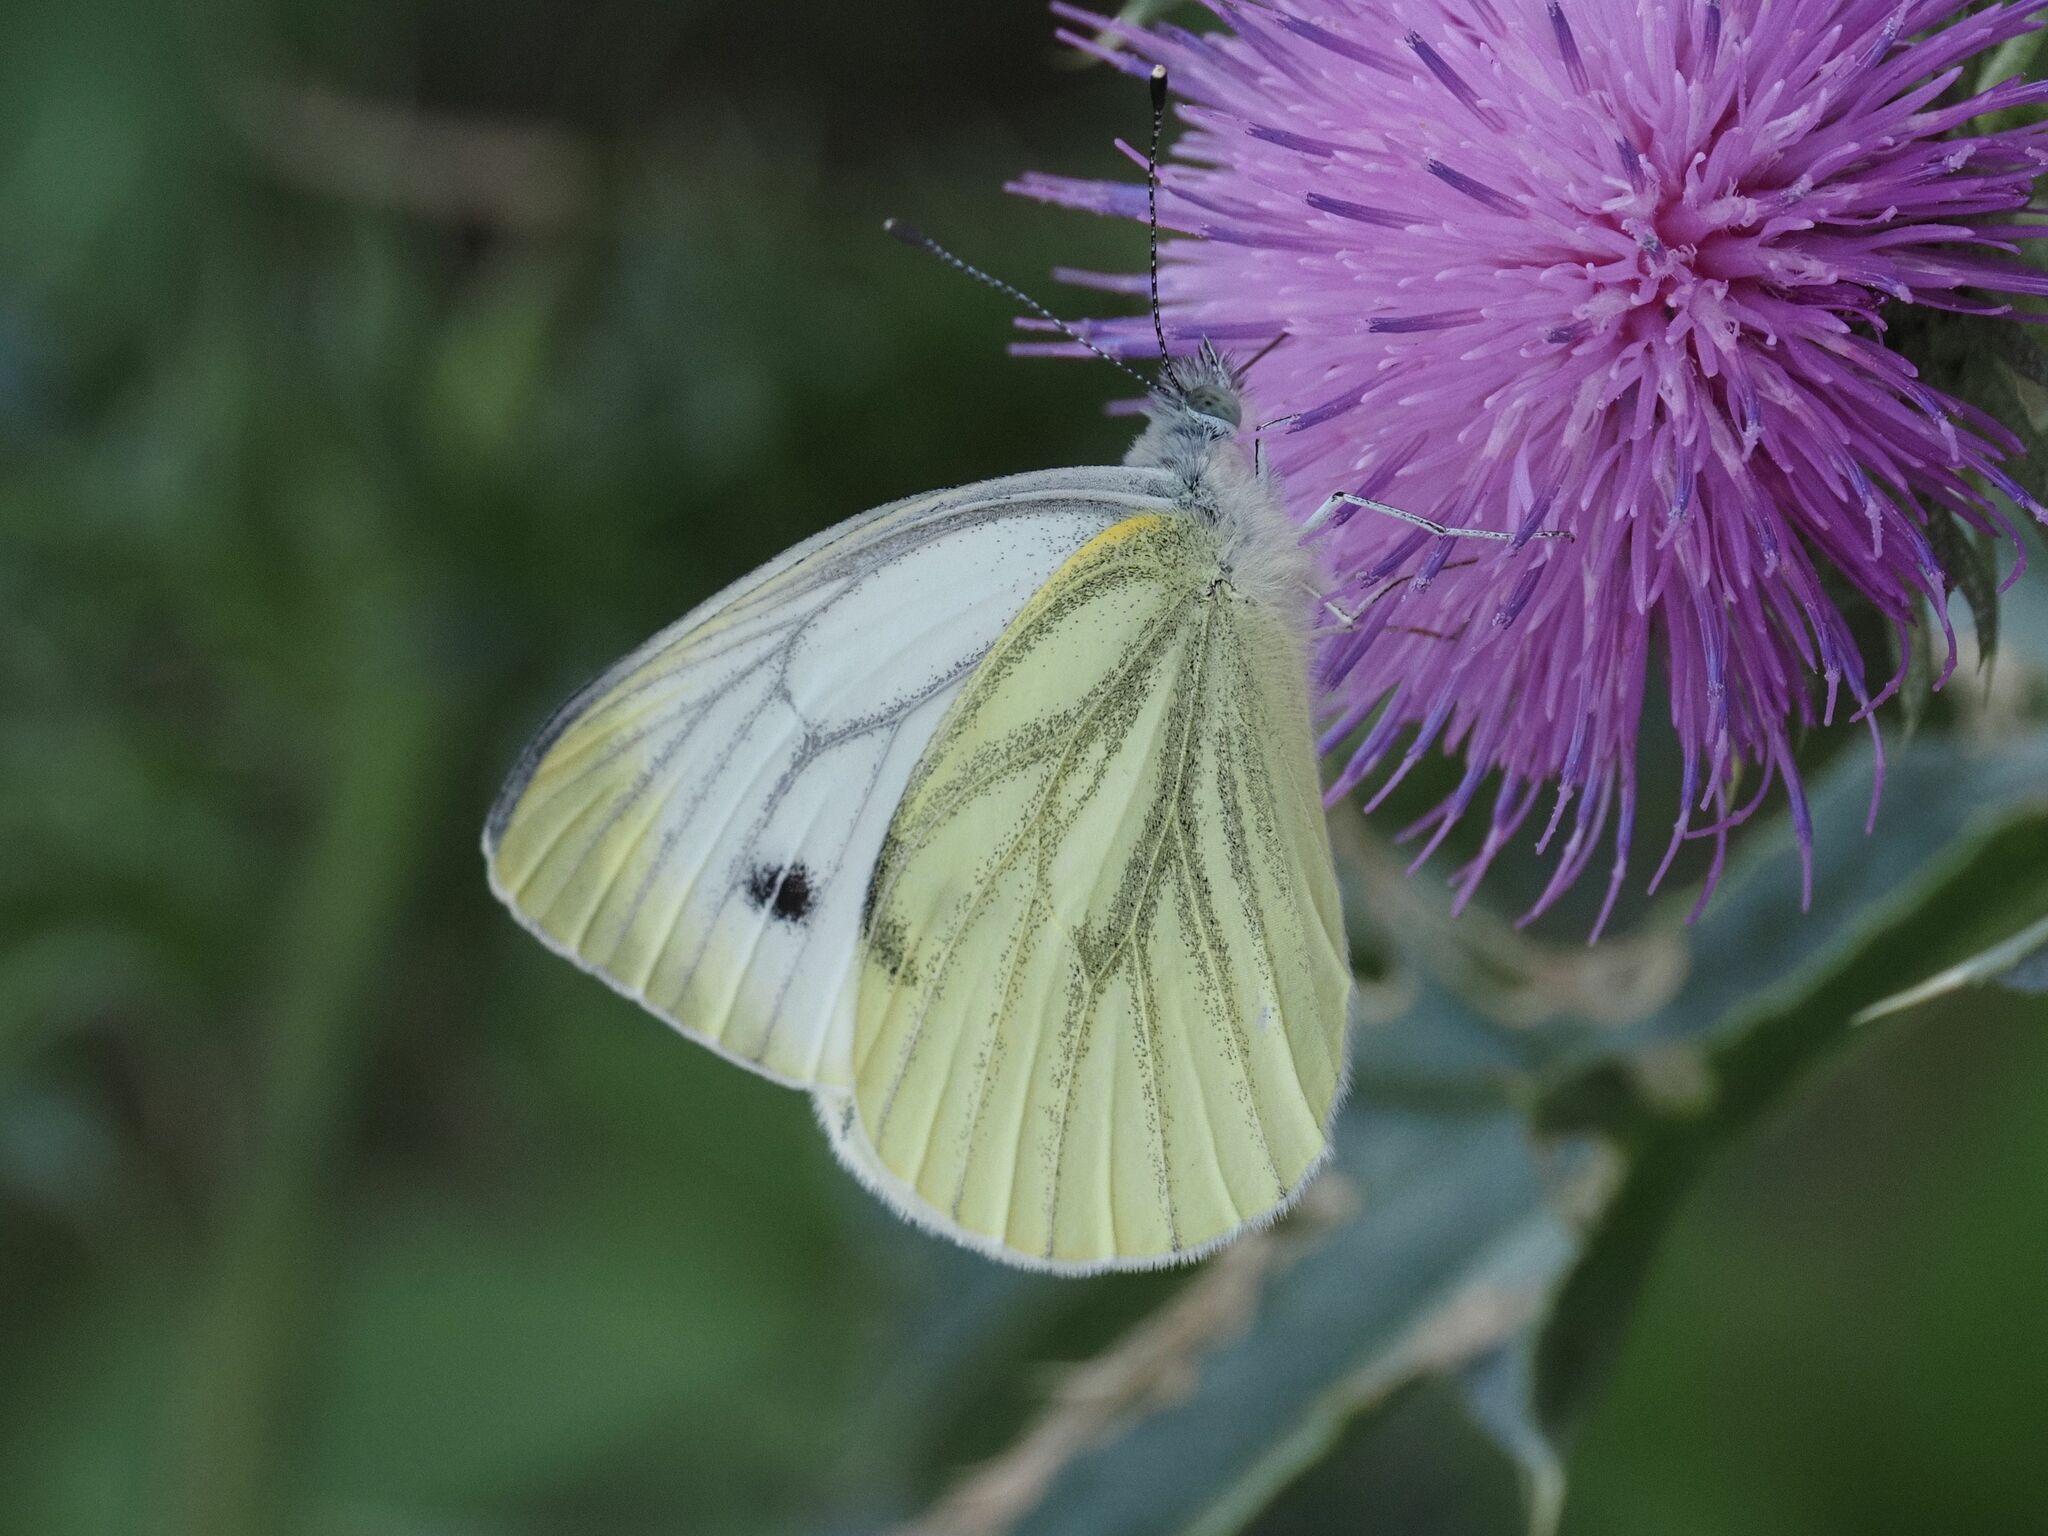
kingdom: Animalia
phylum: Arthropoda
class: Insecta
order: Lepidoptera
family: Pieridae
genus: Pieris
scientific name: Pieris napi
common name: Green-veined white
